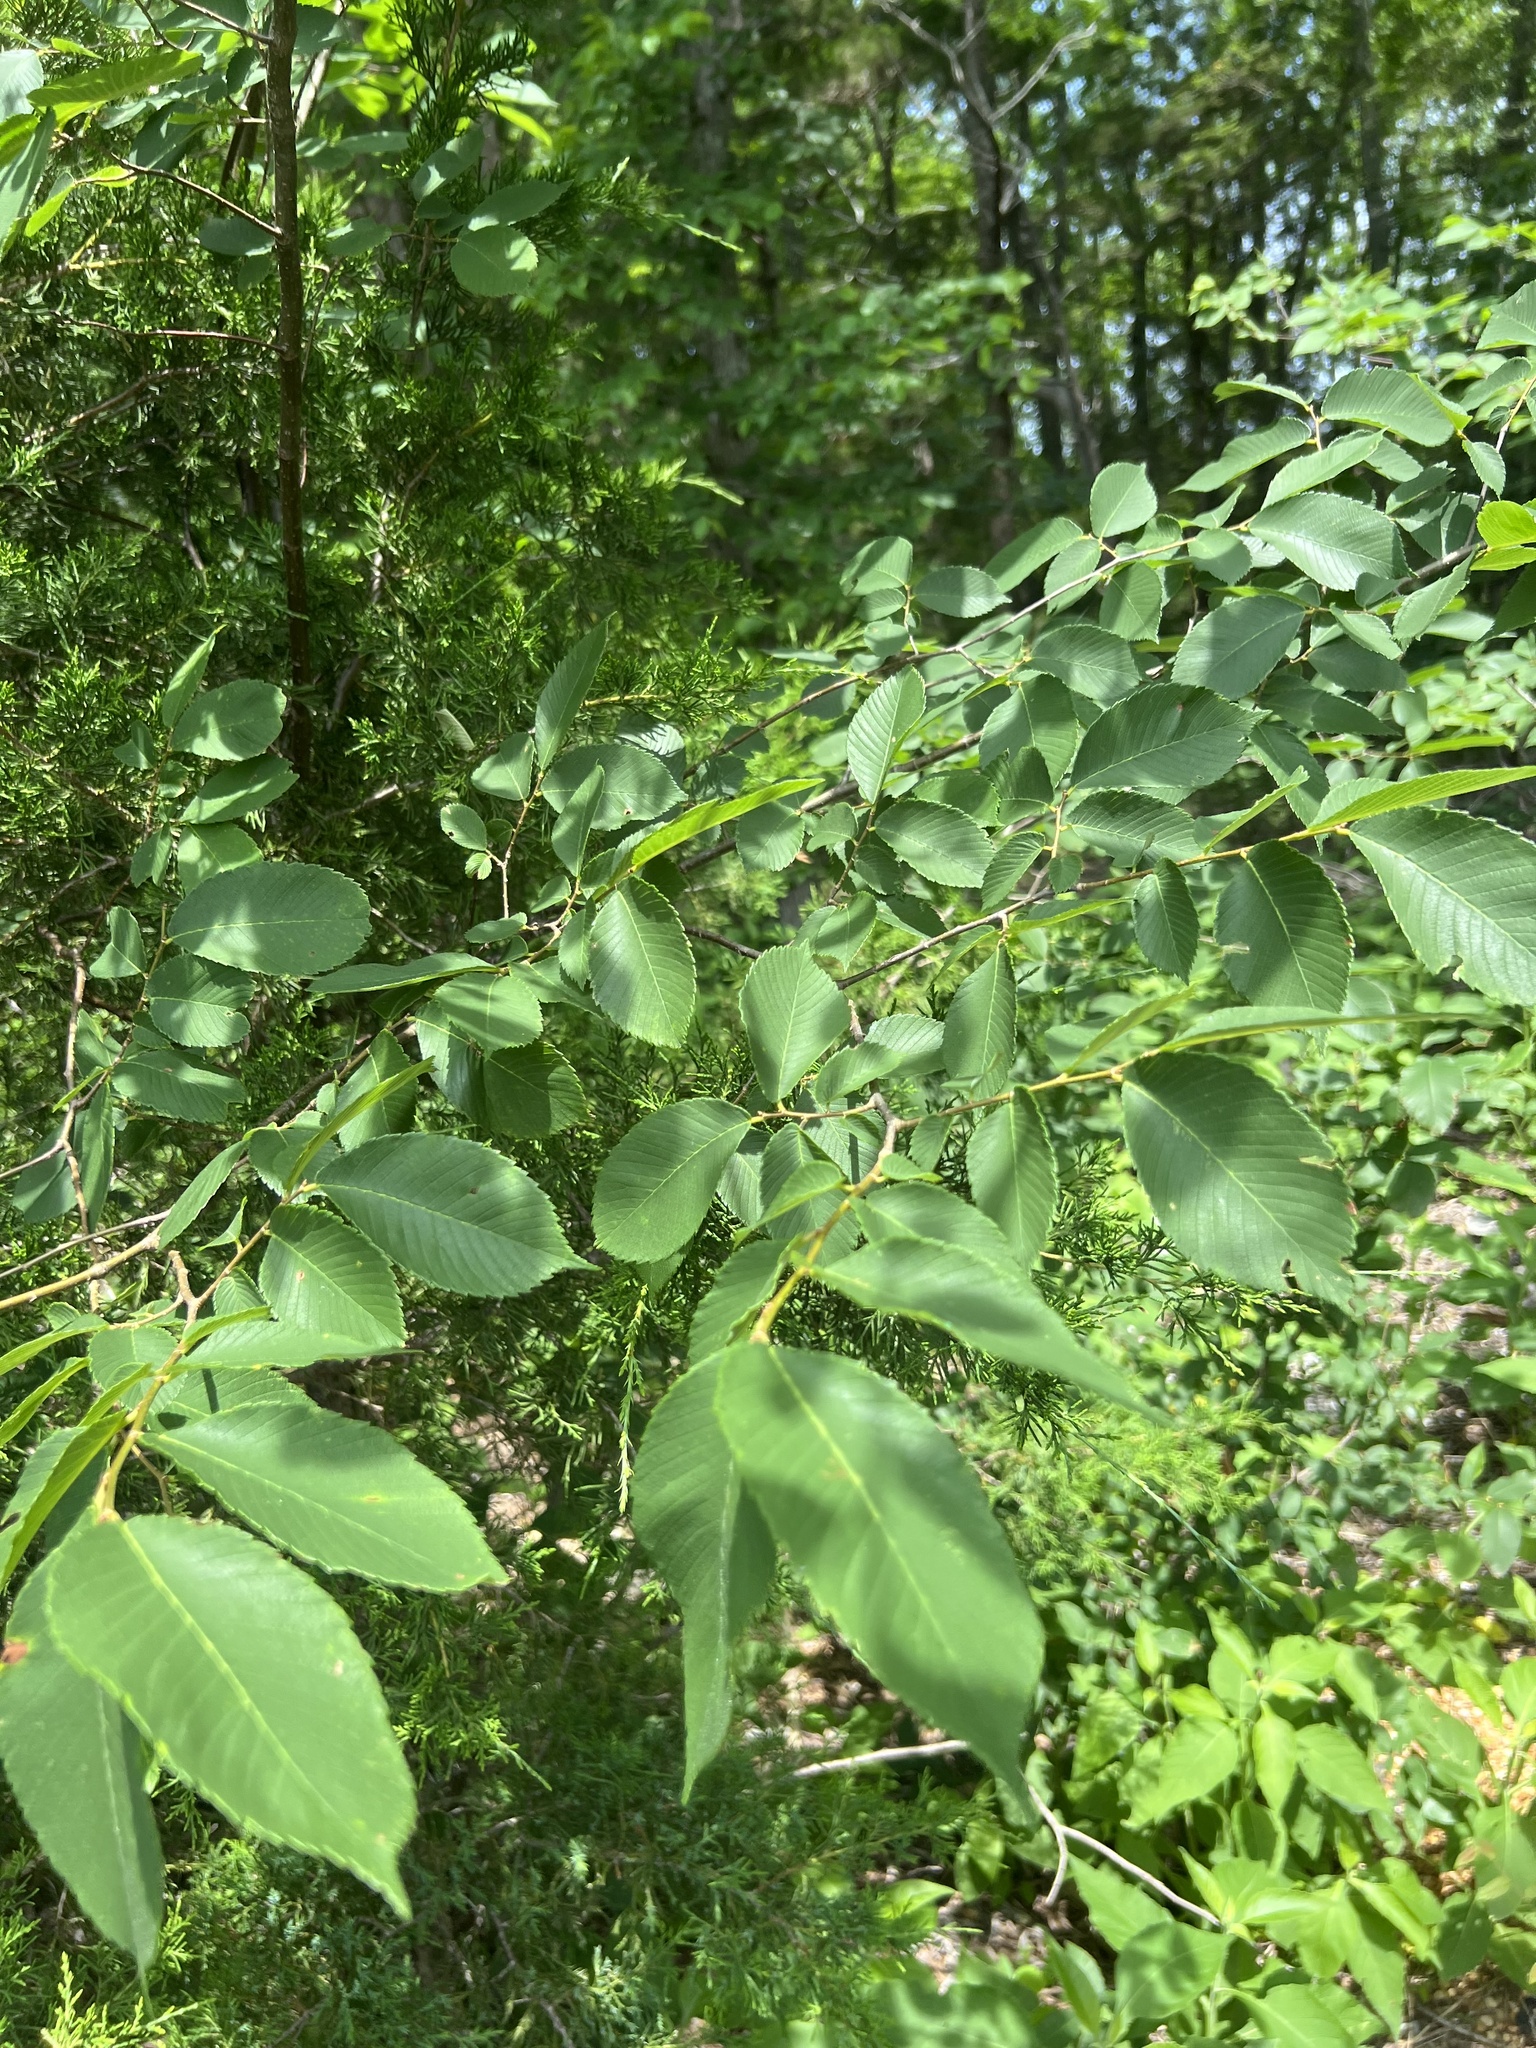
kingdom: Plantae
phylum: Tracheophyta
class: Magnoliopsida
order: Rosales
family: Ulmaceae
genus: Ulmus
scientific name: Ulmus serotina
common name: September elm
